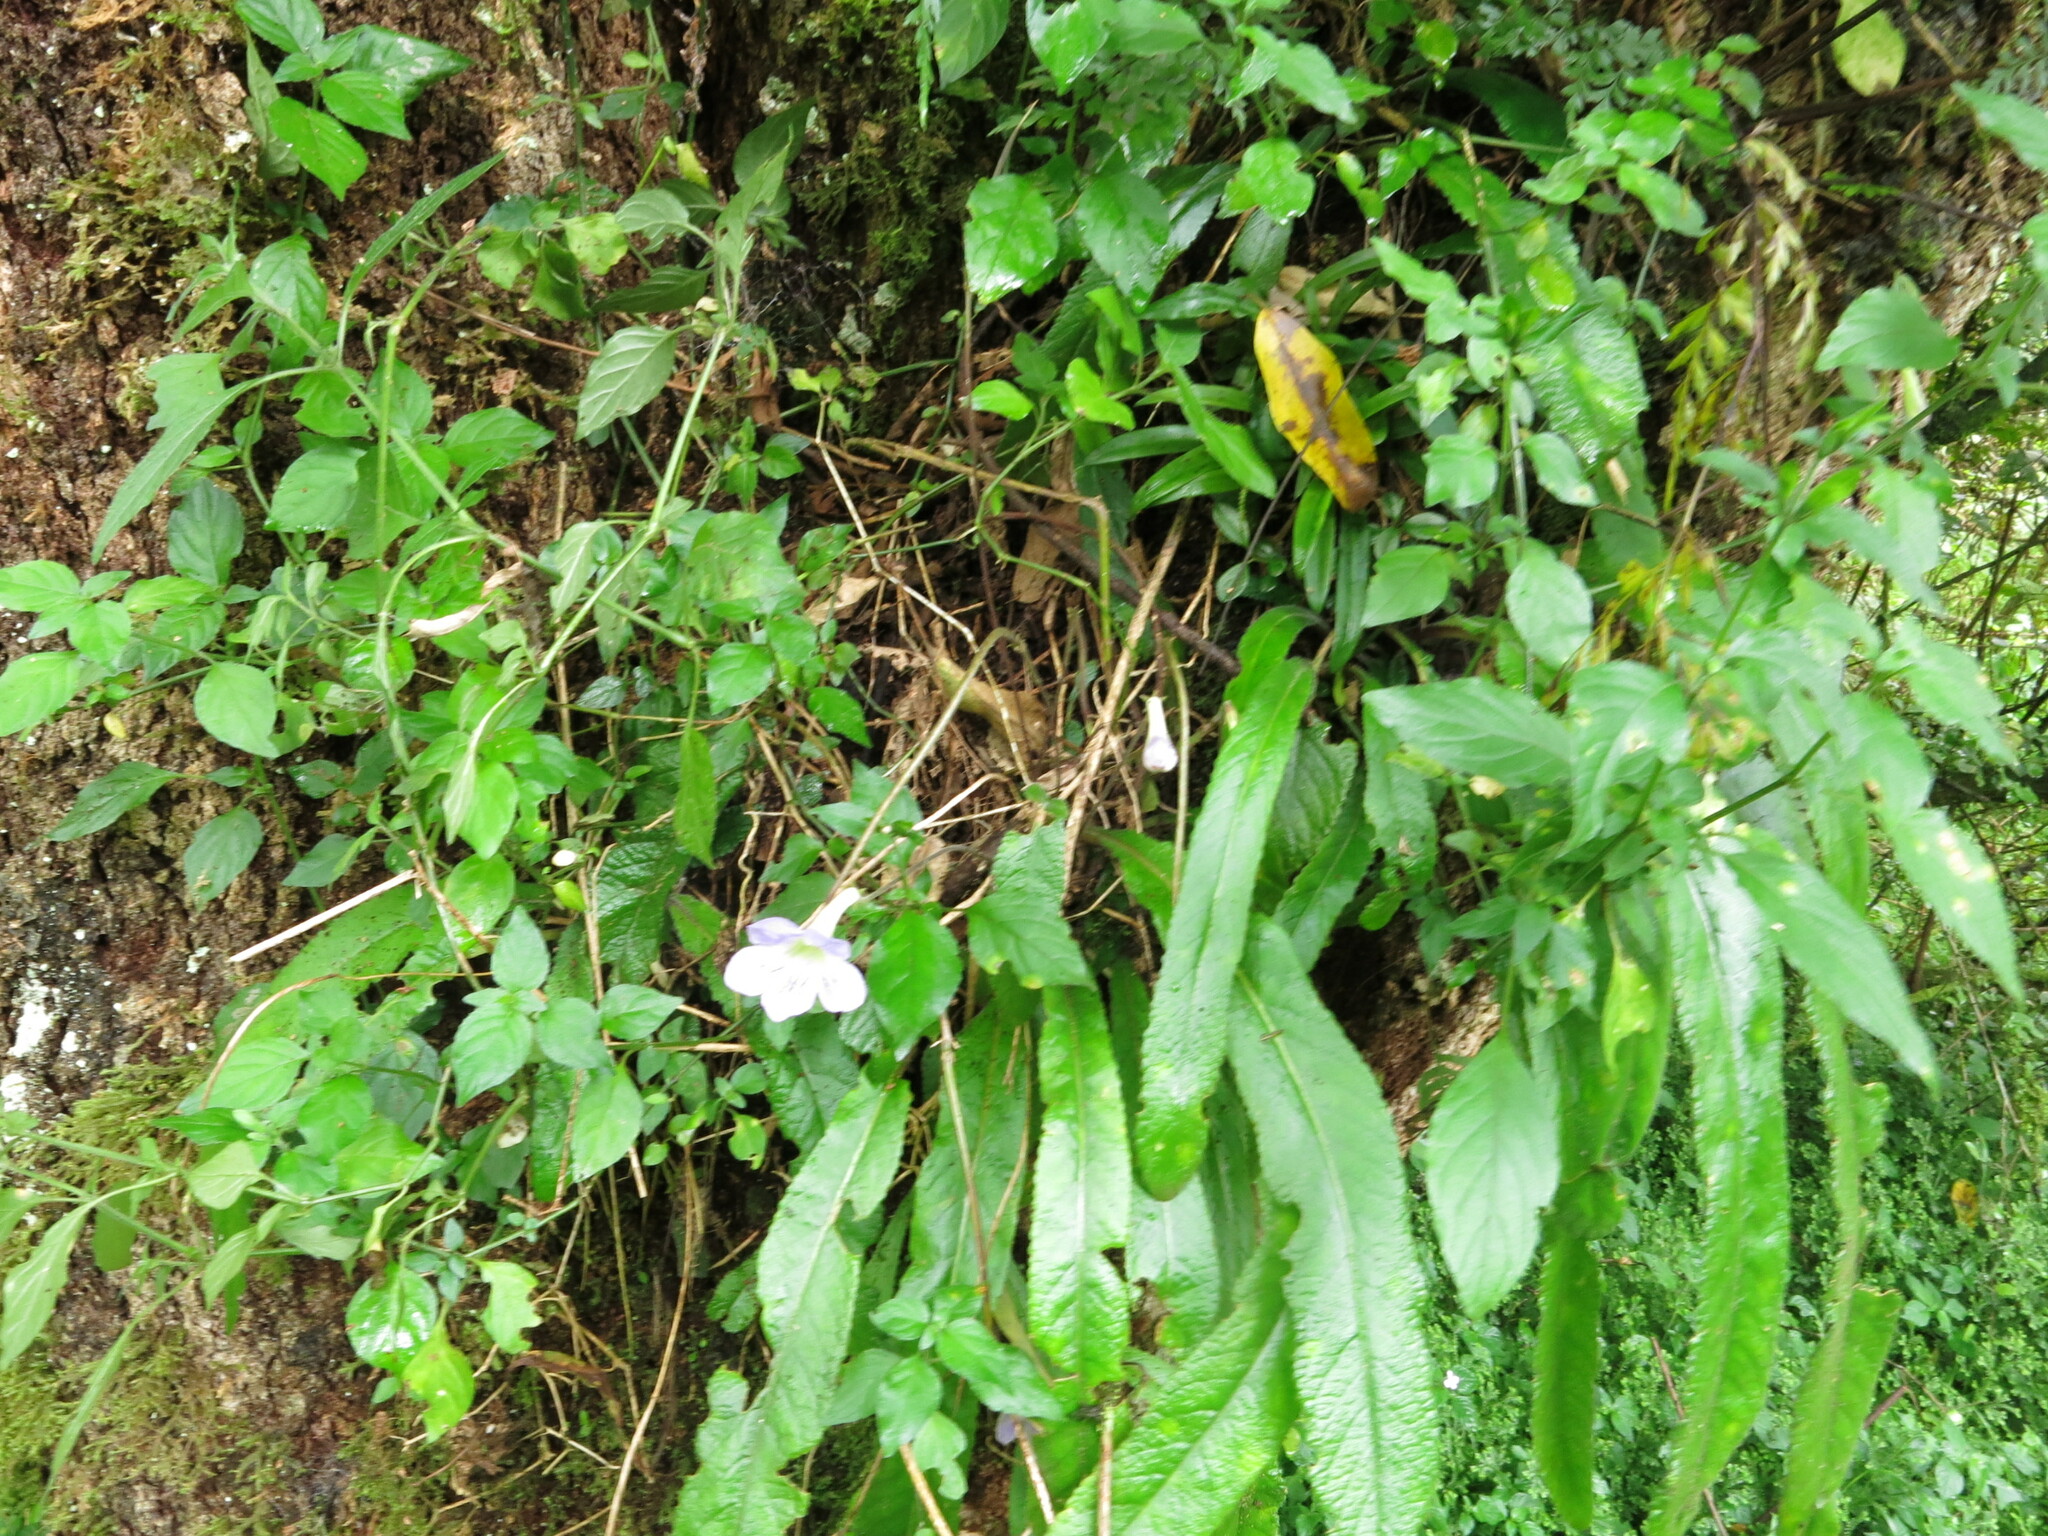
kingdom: Plantae
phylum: Tracheophyta
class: Magnoliopsida
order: Lamiales
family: Gesneriaceae
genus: Streptocarpus
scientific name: Streptocarpus gardenii
